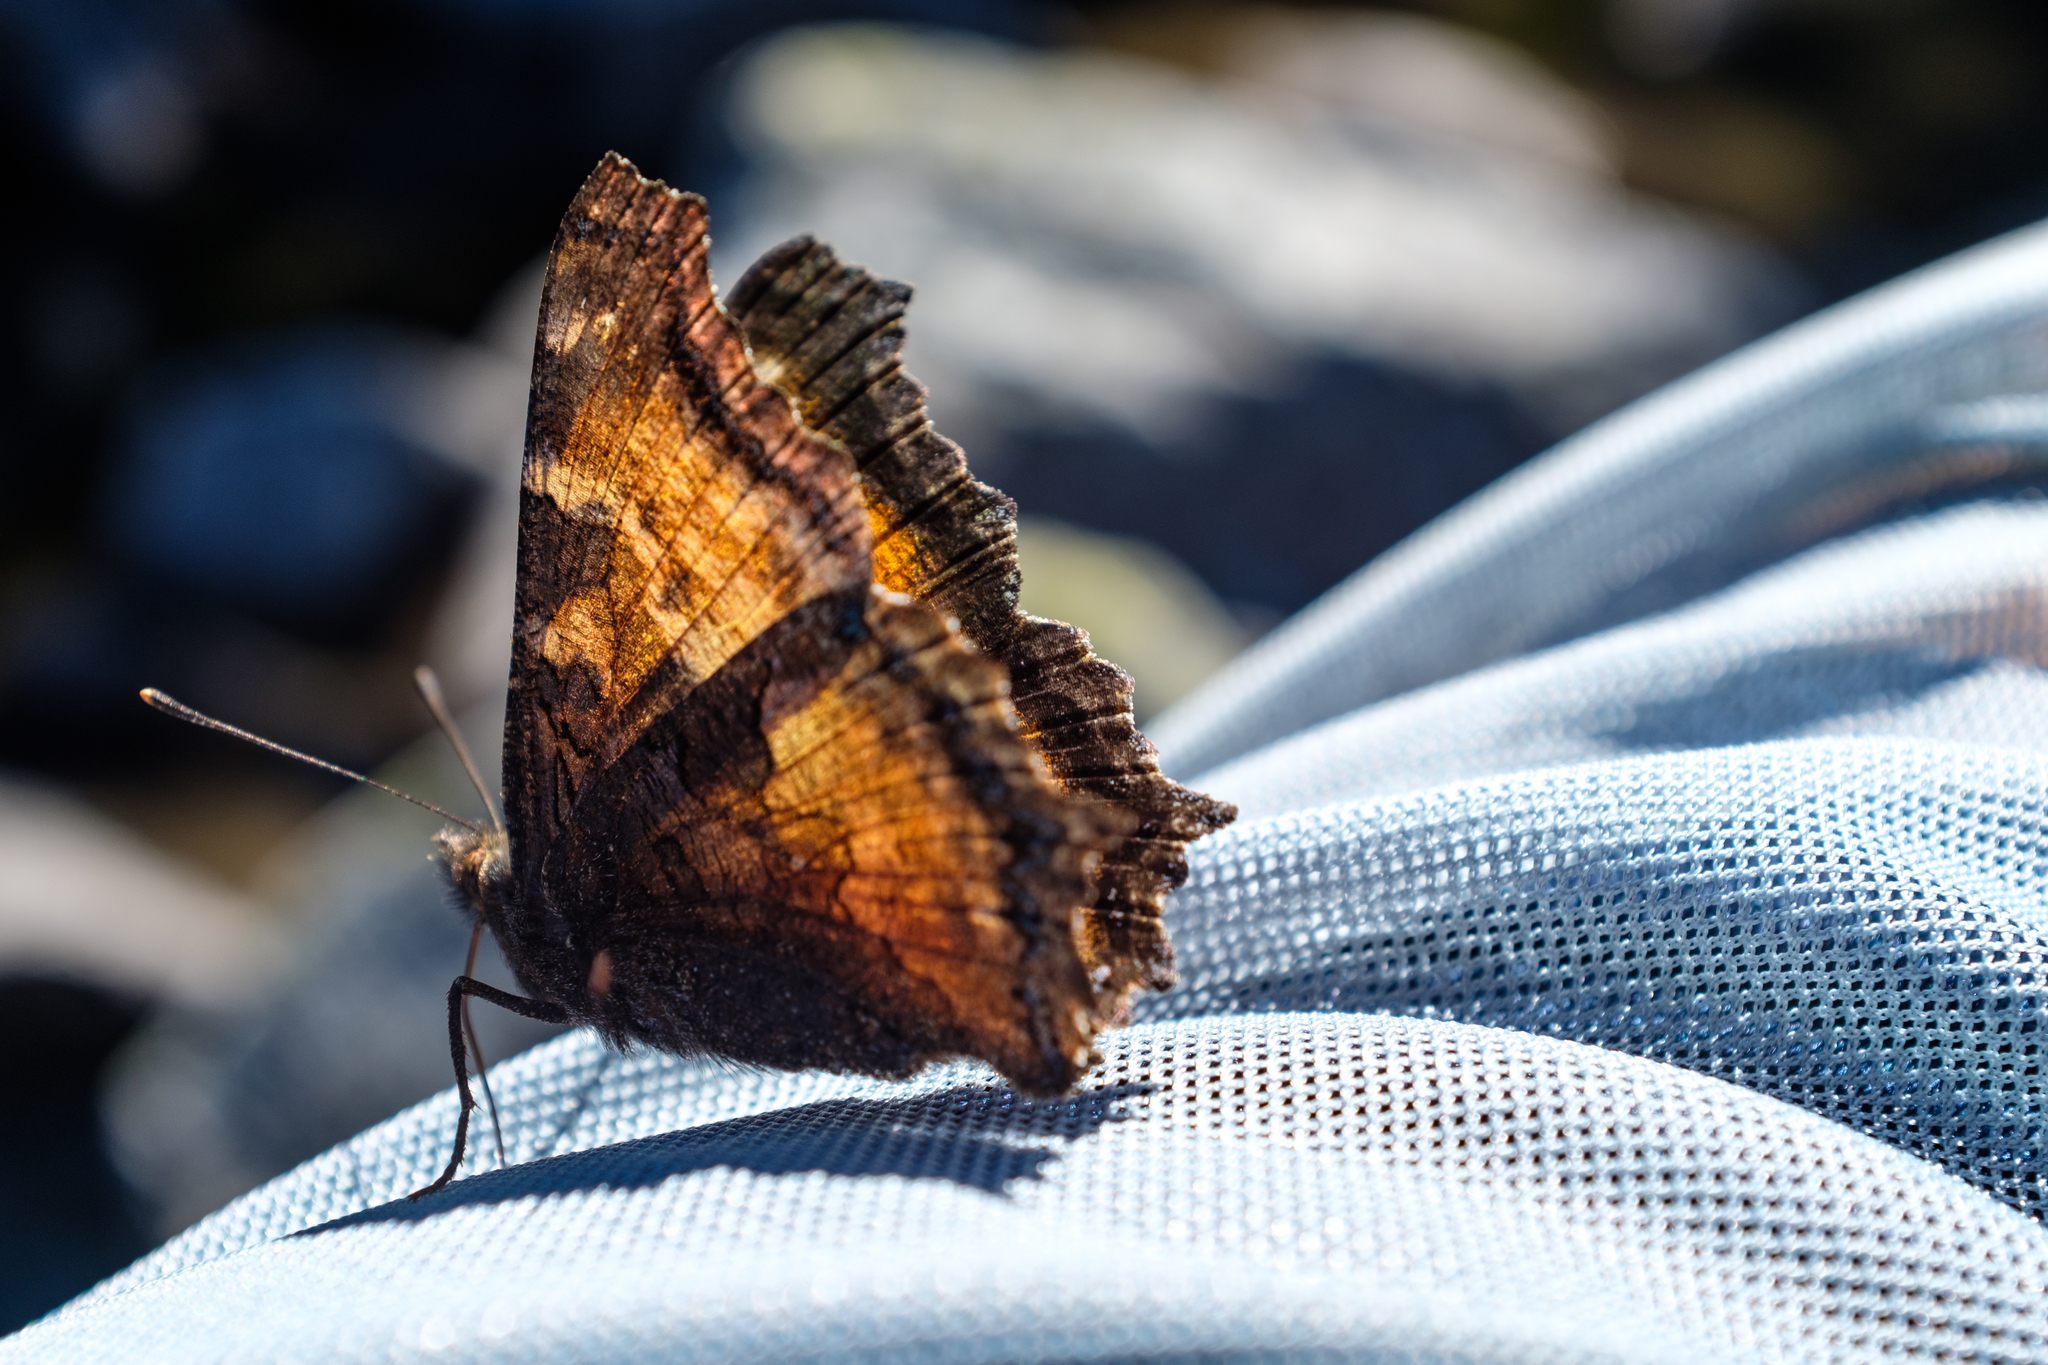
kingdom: Animalia
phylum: Arthropoda
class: Insecta
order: Lepidoptera
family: Nymphalidae
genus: Nymphalis
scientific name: Nymphalis californica
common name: California tortoiseshell
